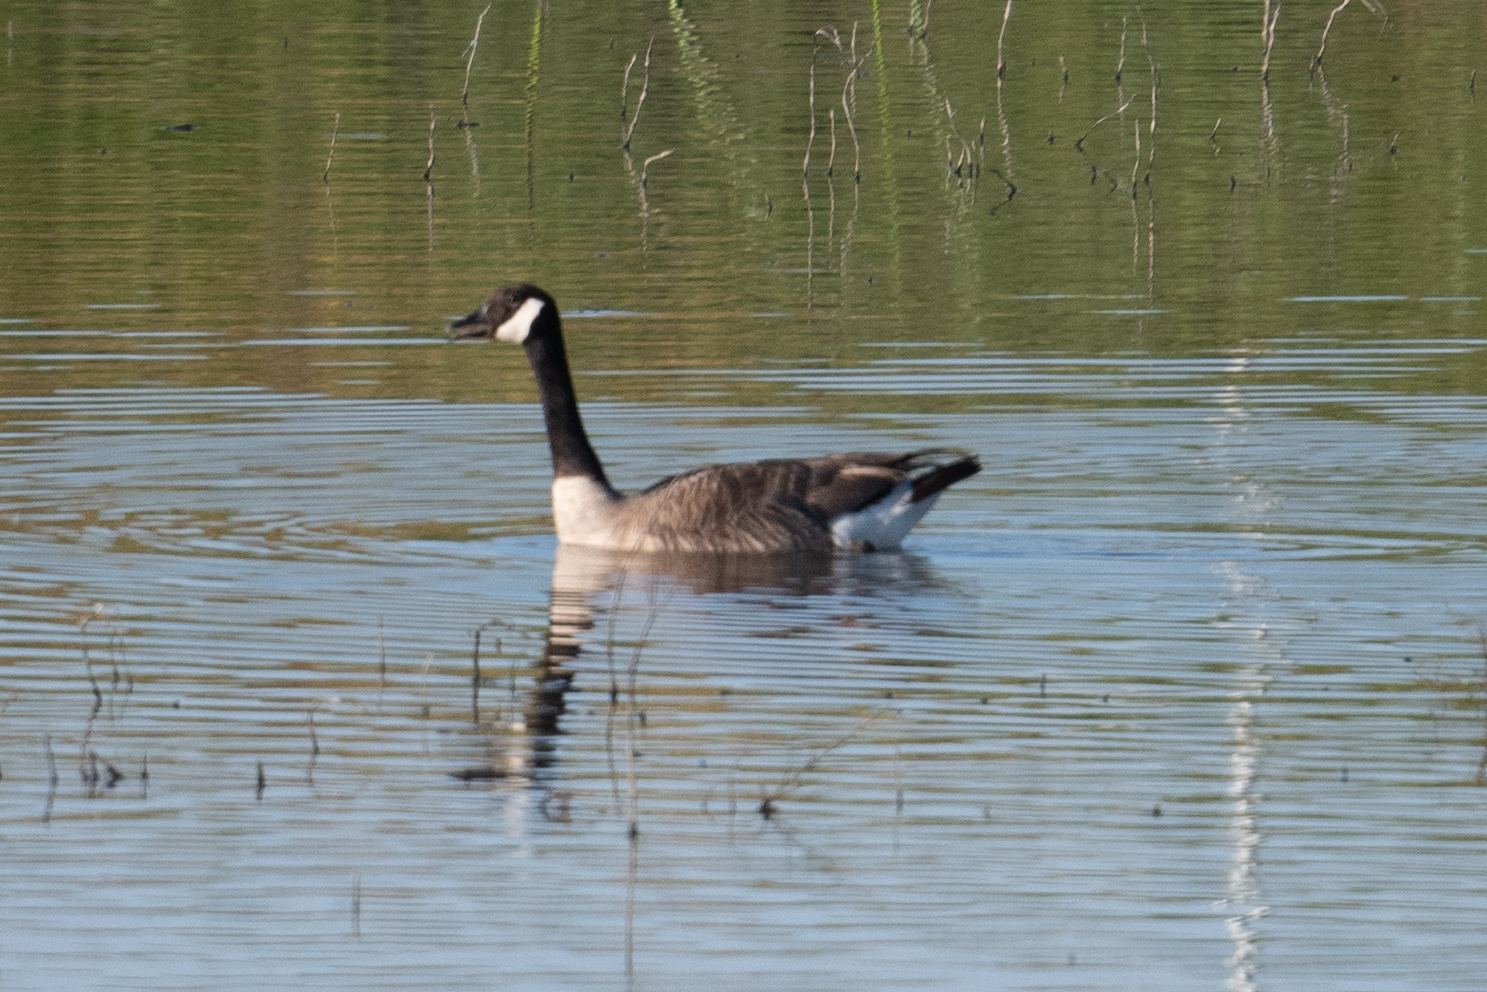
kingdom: Animalia
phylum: Chordata
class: Aves
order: Anseriformes
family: Anatidae
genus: Branta
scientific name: Branta canadensis
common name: Canada goose
